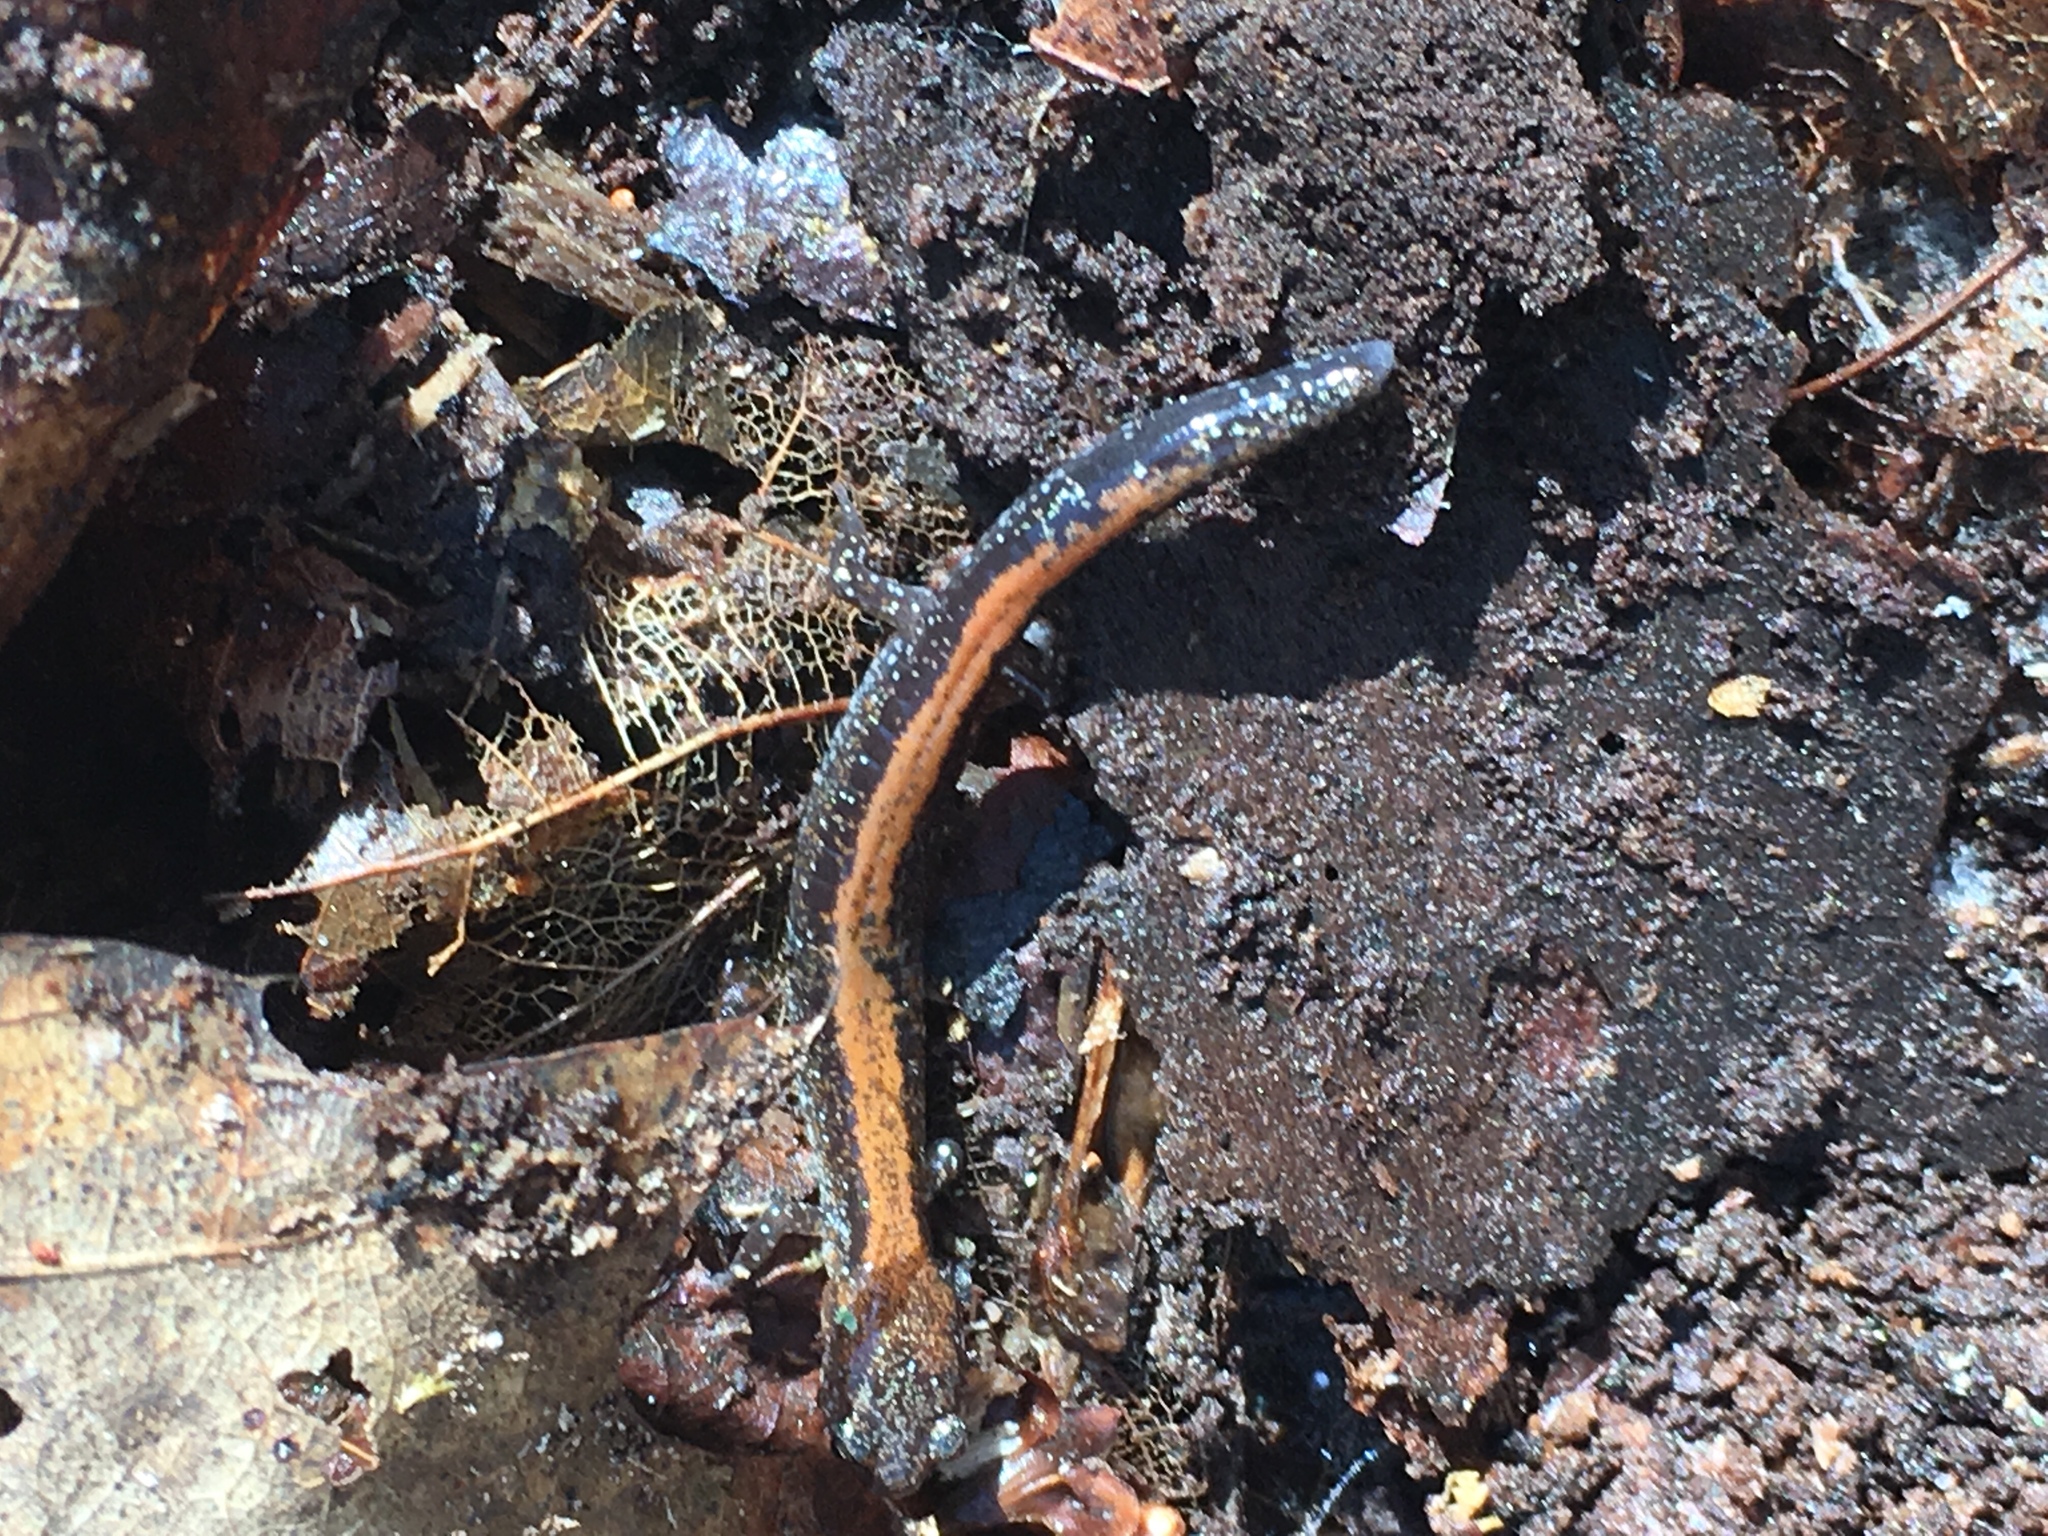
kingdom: Animalia
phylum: Chordata
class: Amphibia
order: Caudata
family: Plethodontidae
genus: Plethodon
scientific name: Plethodon cinereus
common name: Redback salamander
